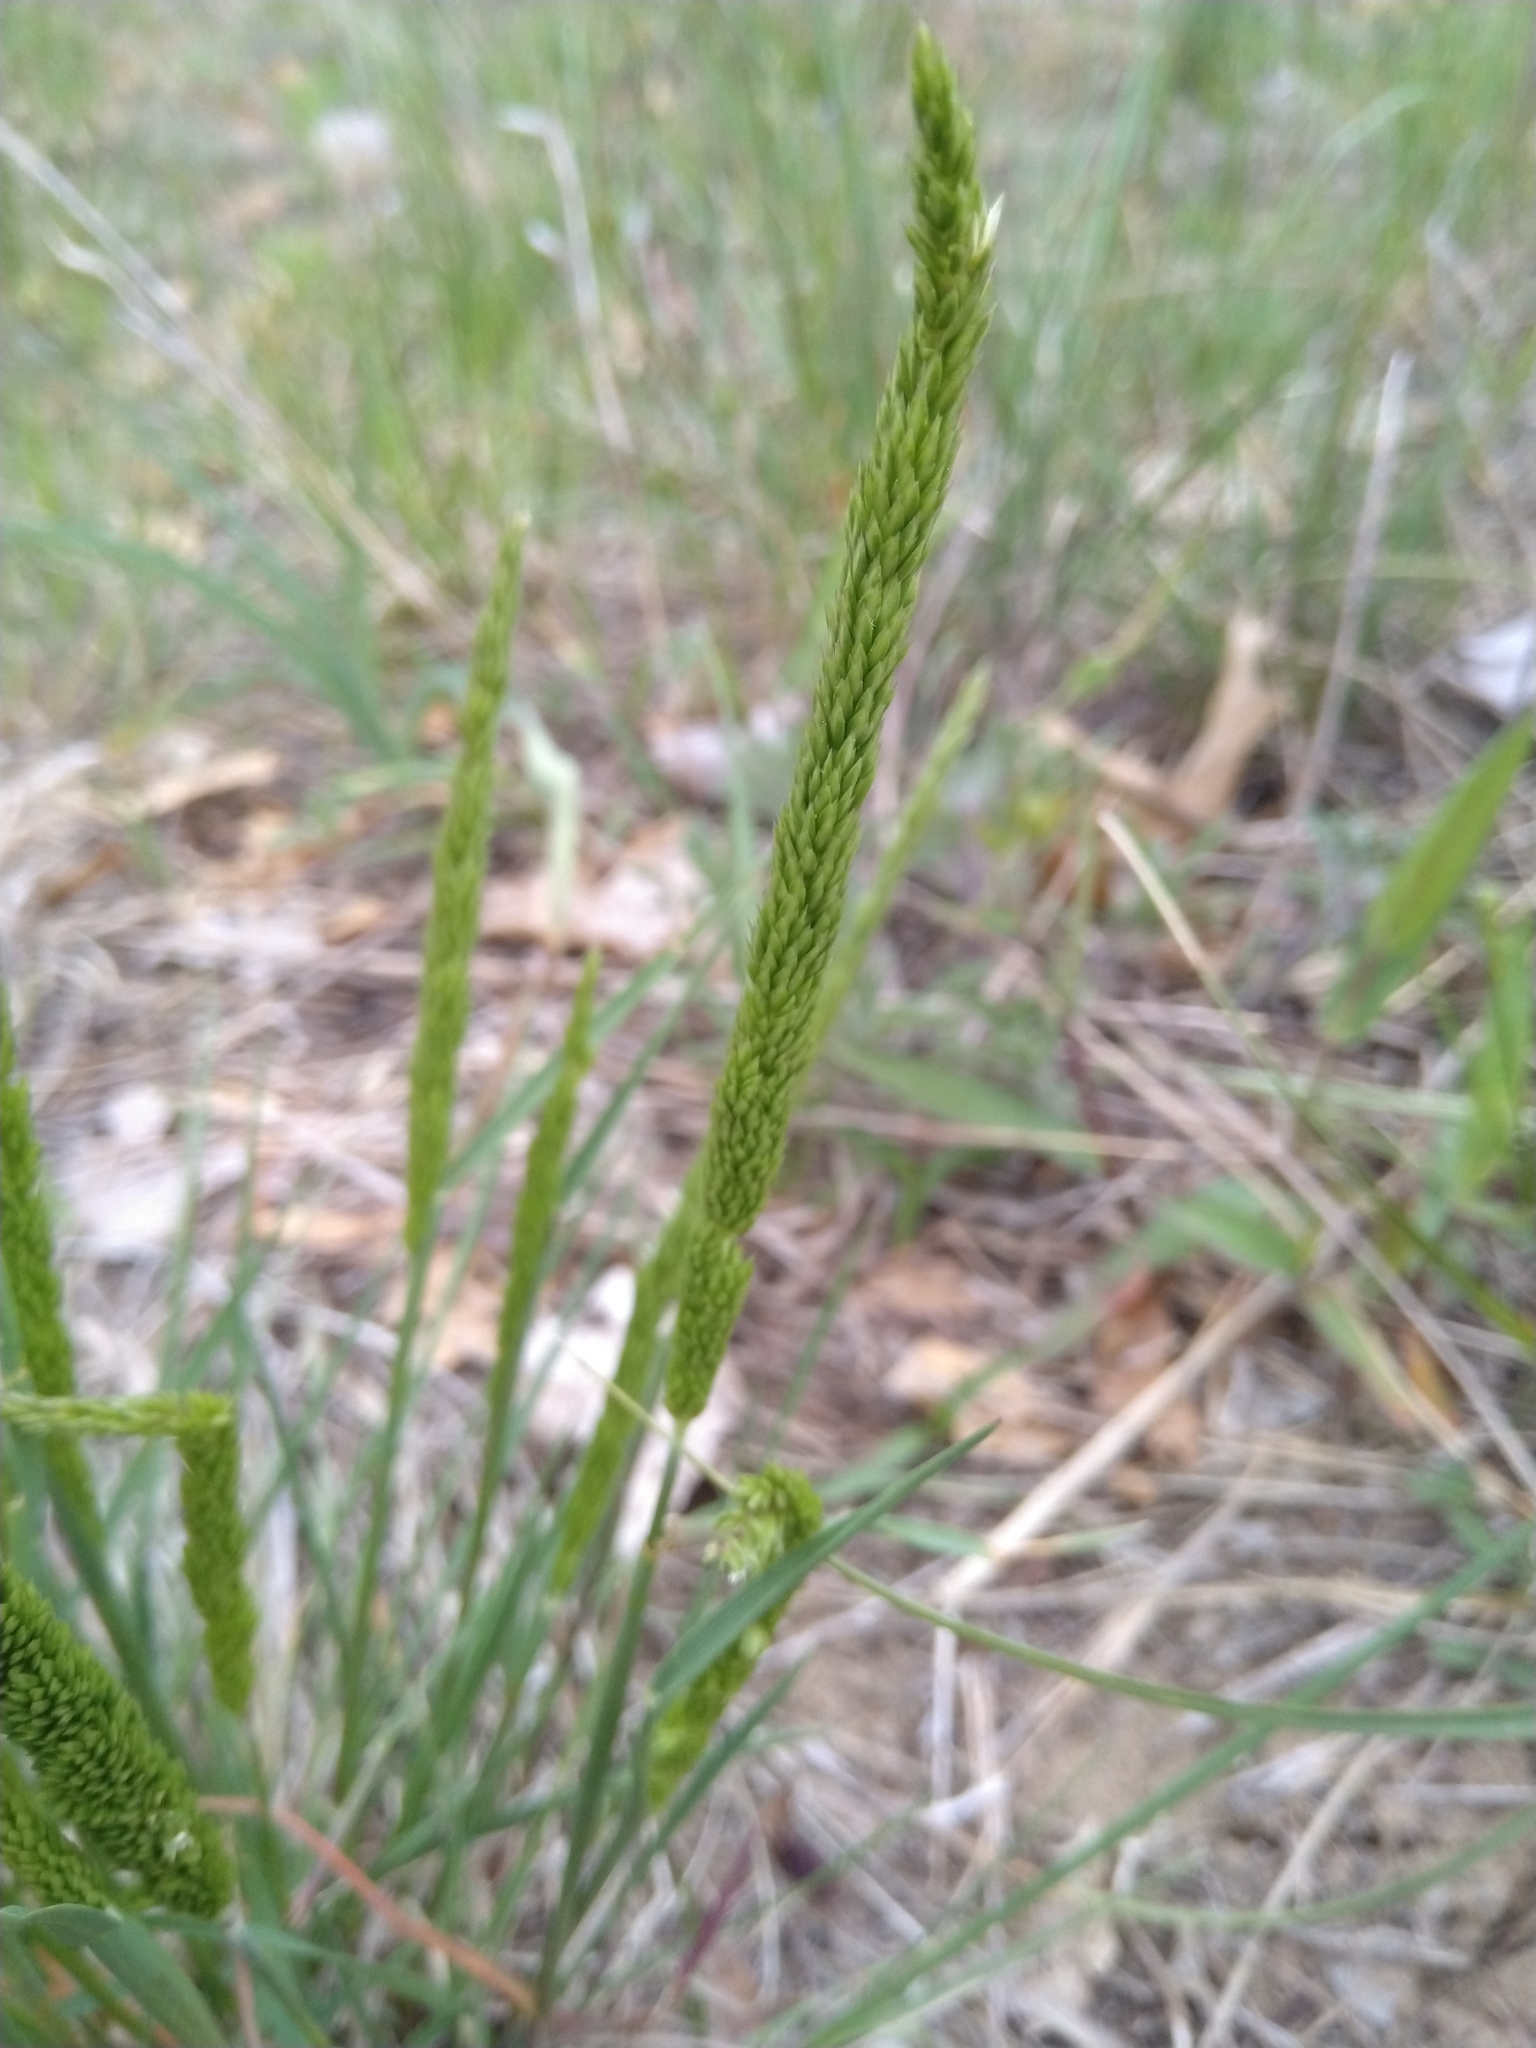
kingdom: Plantae
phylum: Tracheophyta
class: Liliopsida
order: Poales
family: Poaceae
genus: Koeleria
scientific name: Koeleria macrantha
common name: Crested hair-grass
